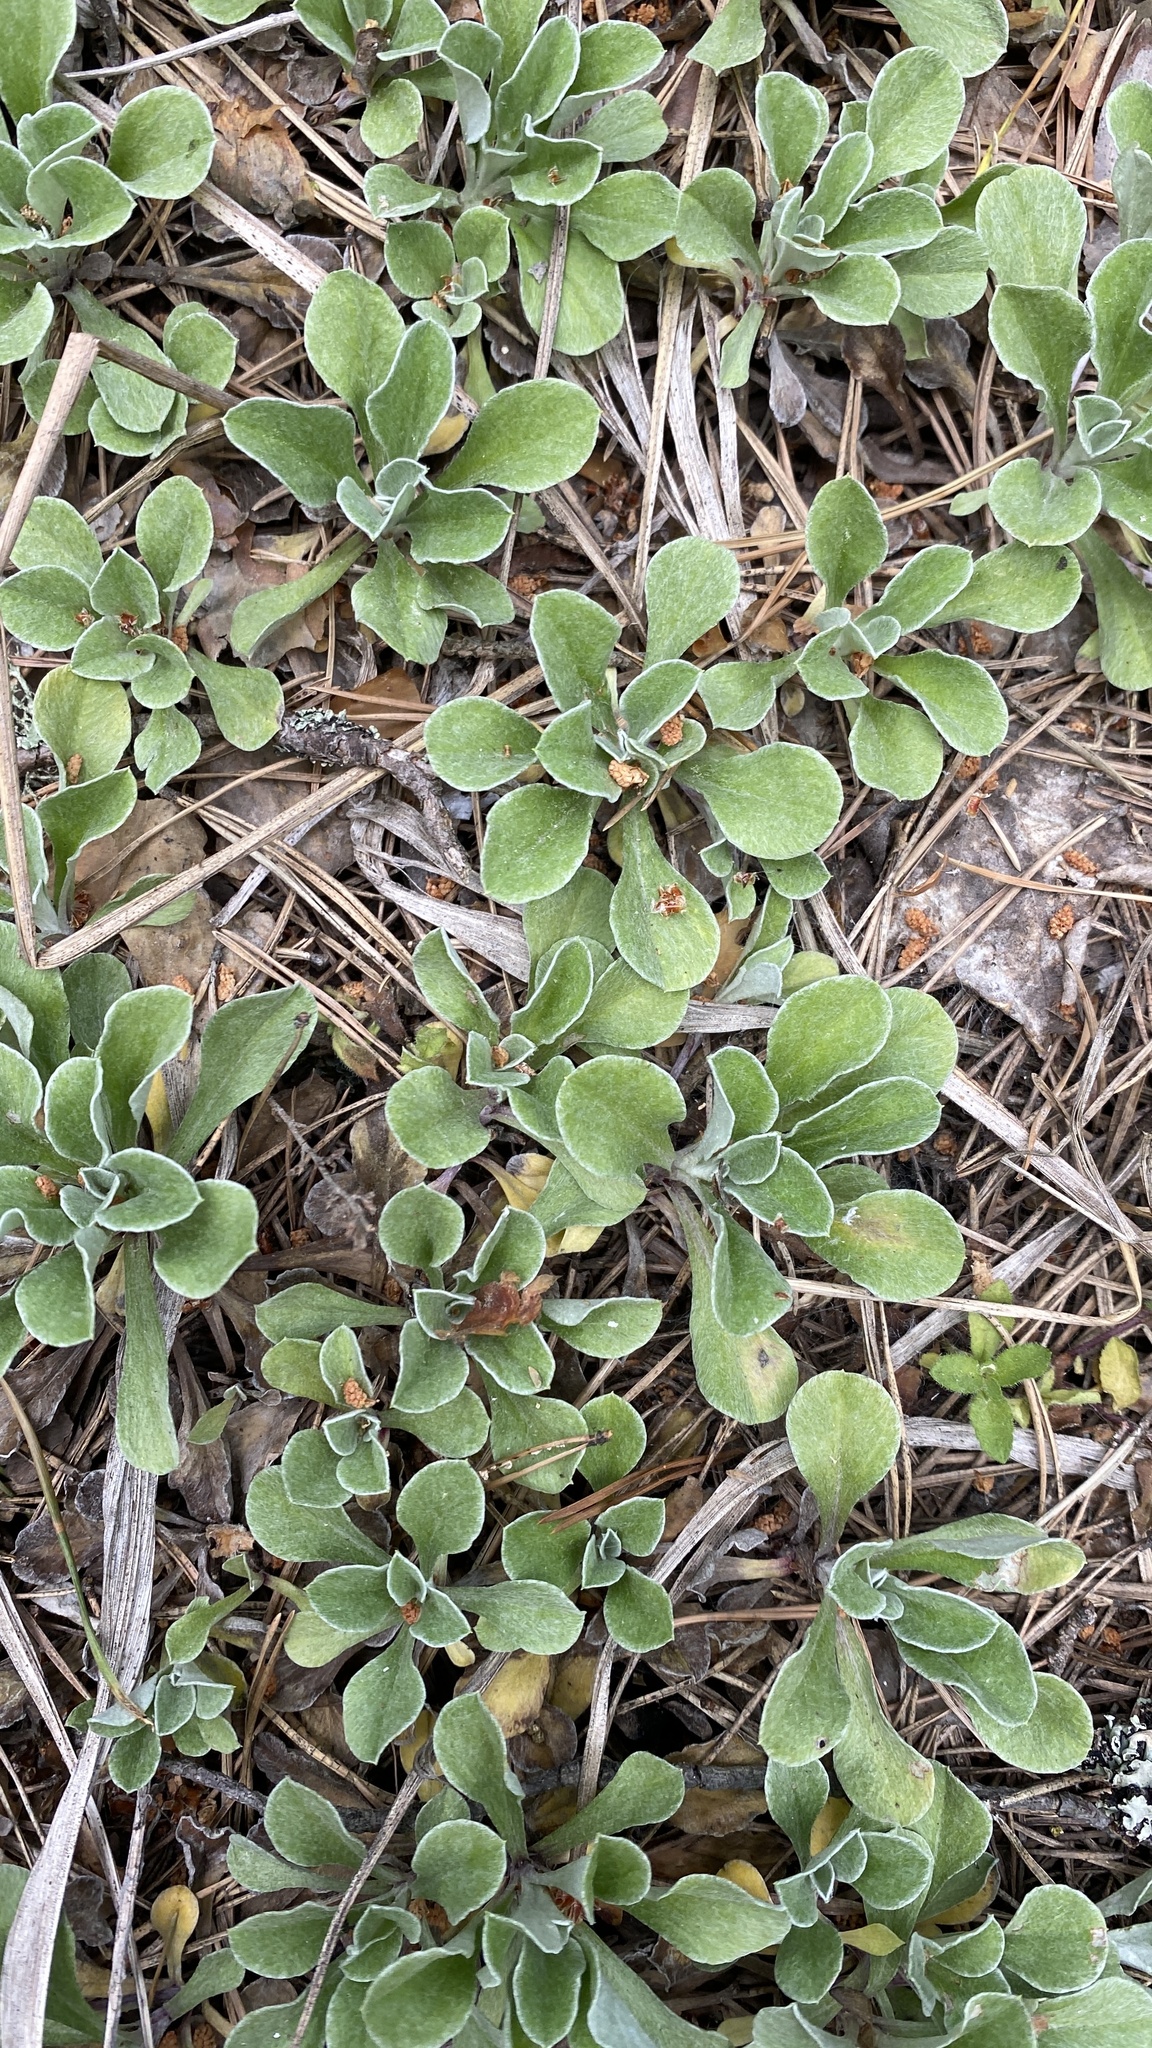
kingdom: Plantae
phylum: Tracheophyta
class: Magnoliopsida
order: Asterales
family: Asteraceae
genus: Antennaria
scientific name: Antennaria dioica
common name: Mountain everlasting
